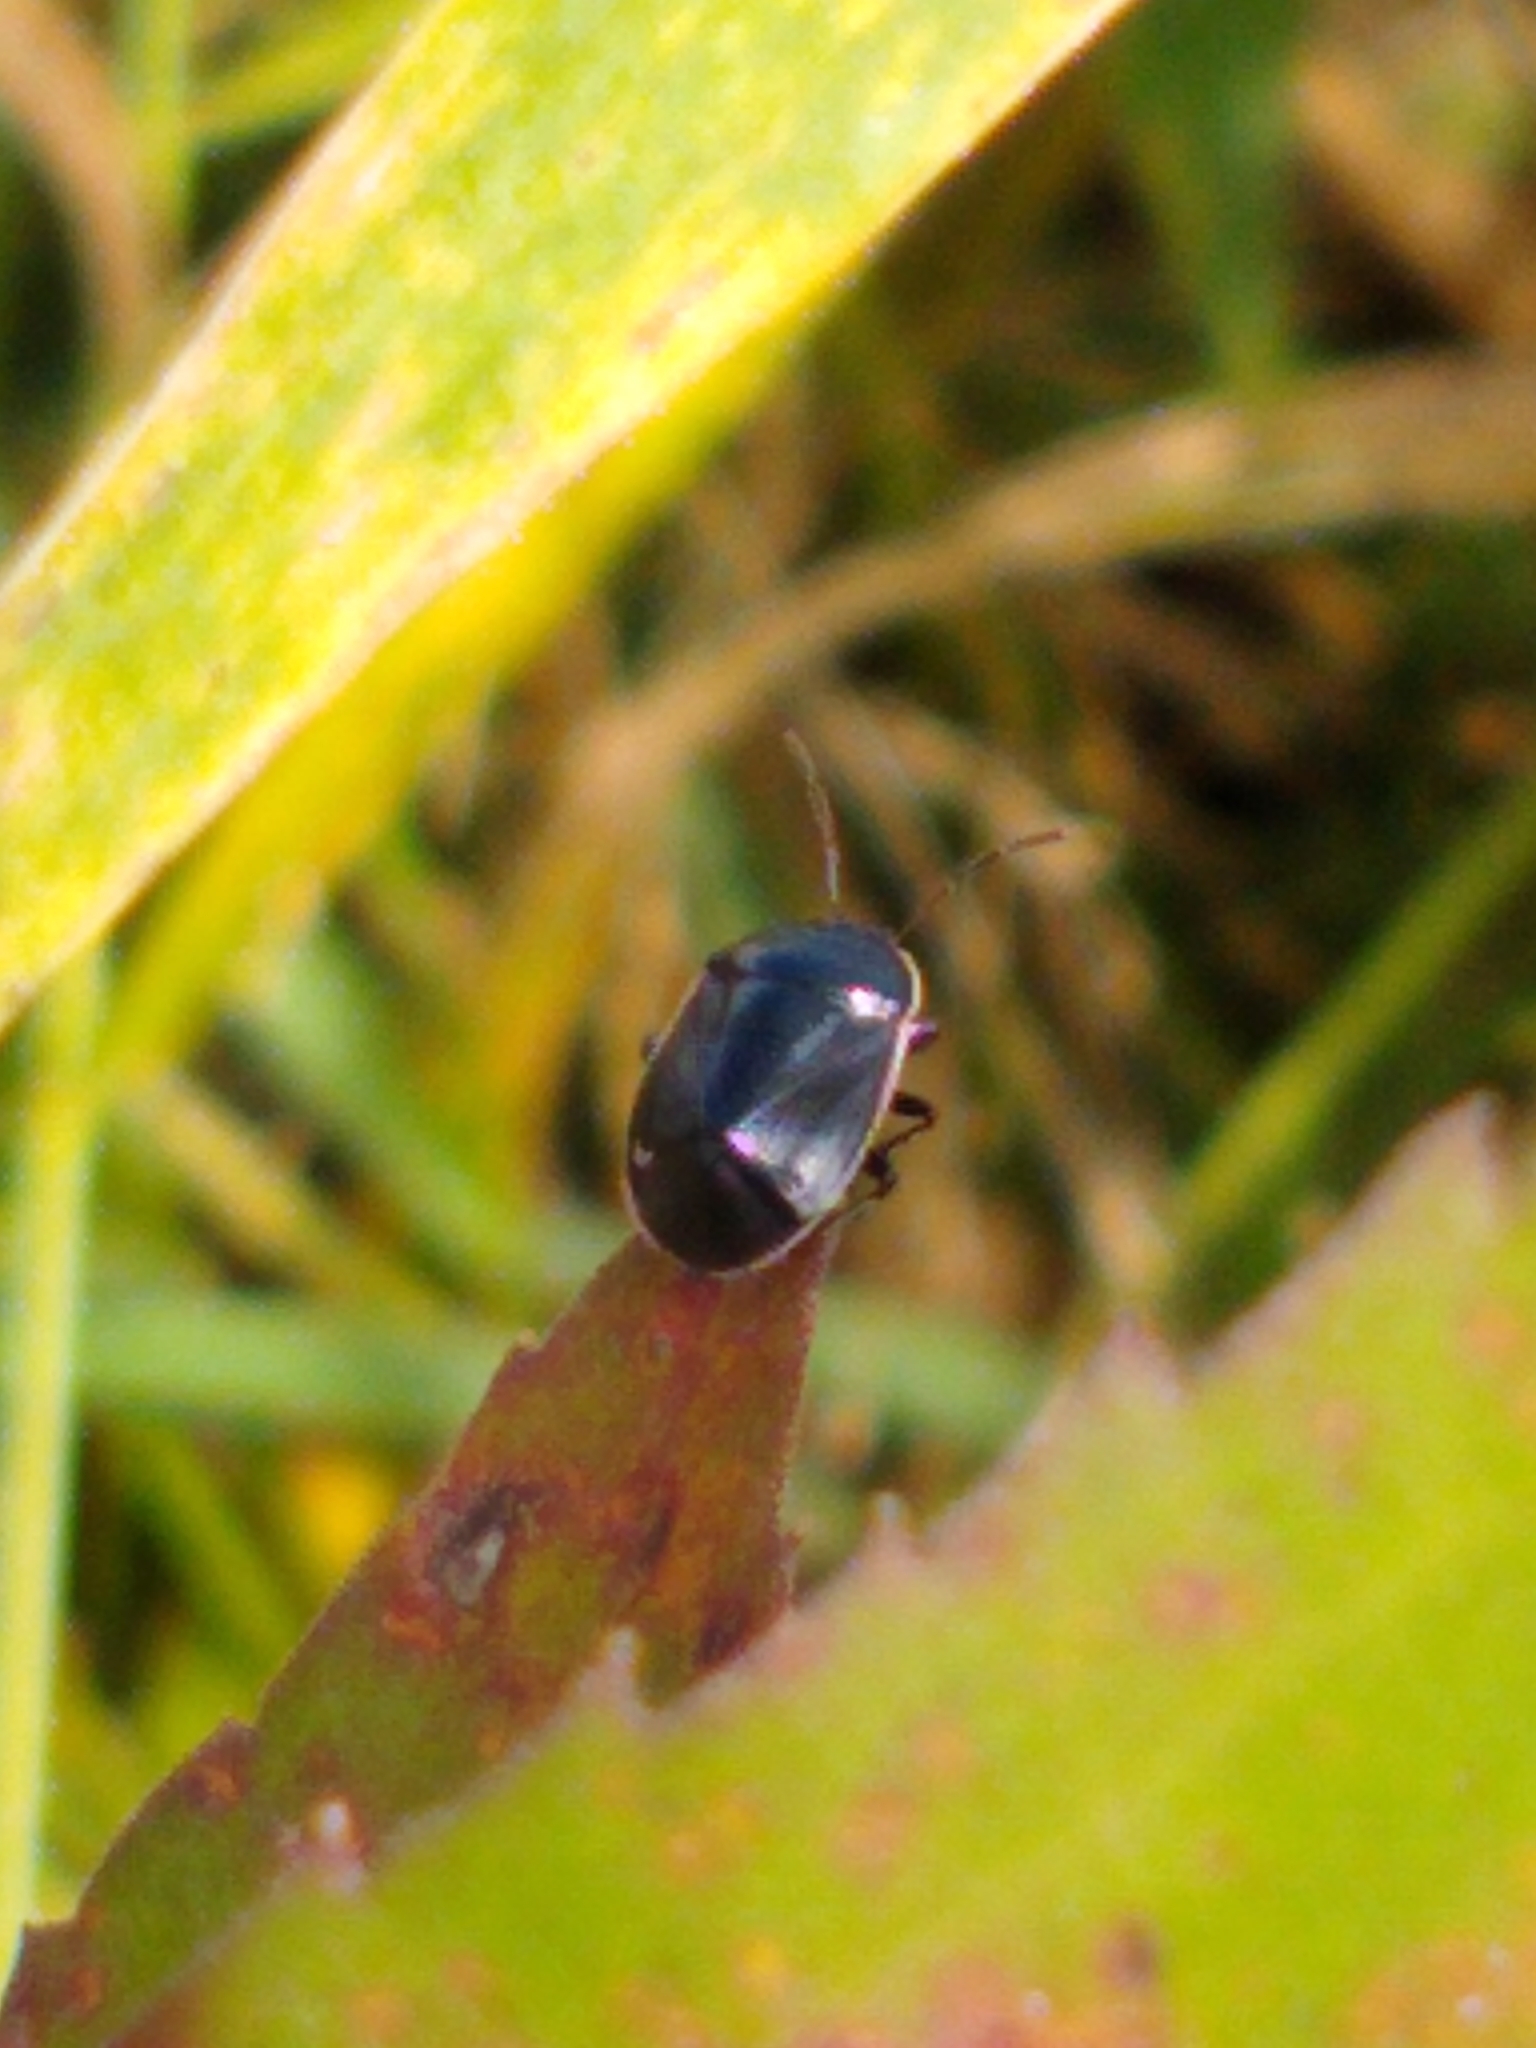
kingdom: Animalia
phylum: Arthropoda
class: Insecta
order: Hemiptera
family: Cydnidae
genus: Sehirus
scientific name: Sehirus cinctus
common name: White-margined burrower bug
